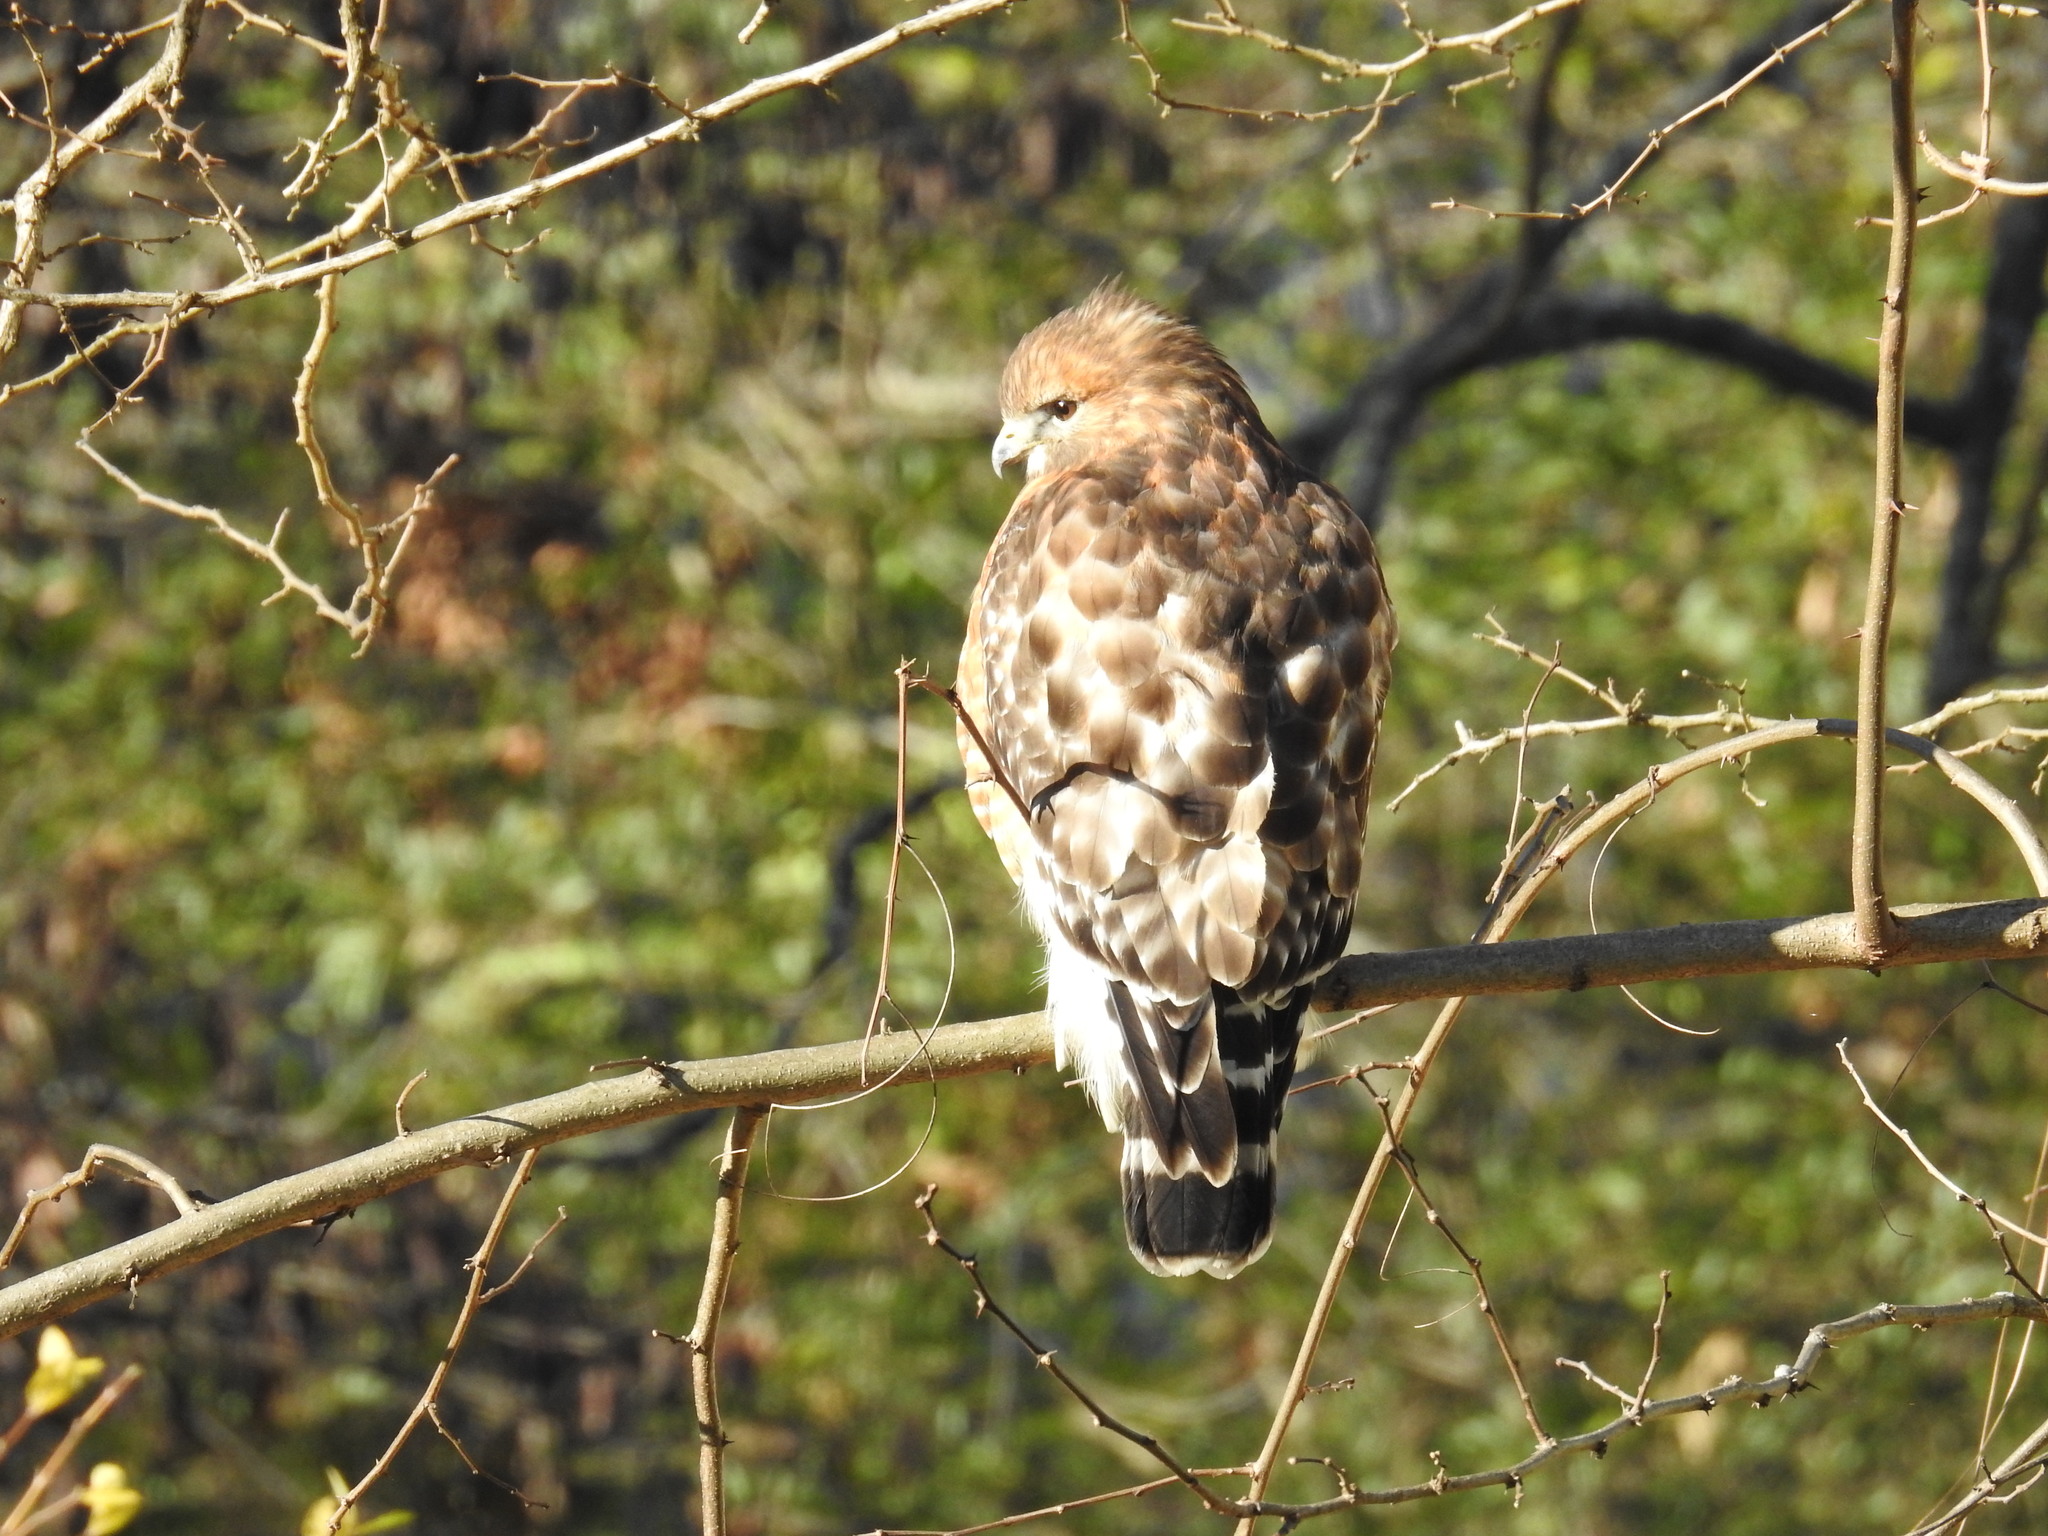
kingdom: Animalia
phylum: Chordata
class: Aves
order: Accipitriformes
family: Accipitridae
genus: Buteo
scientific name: Buteo lineatus
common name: Red-shouldered hawk
